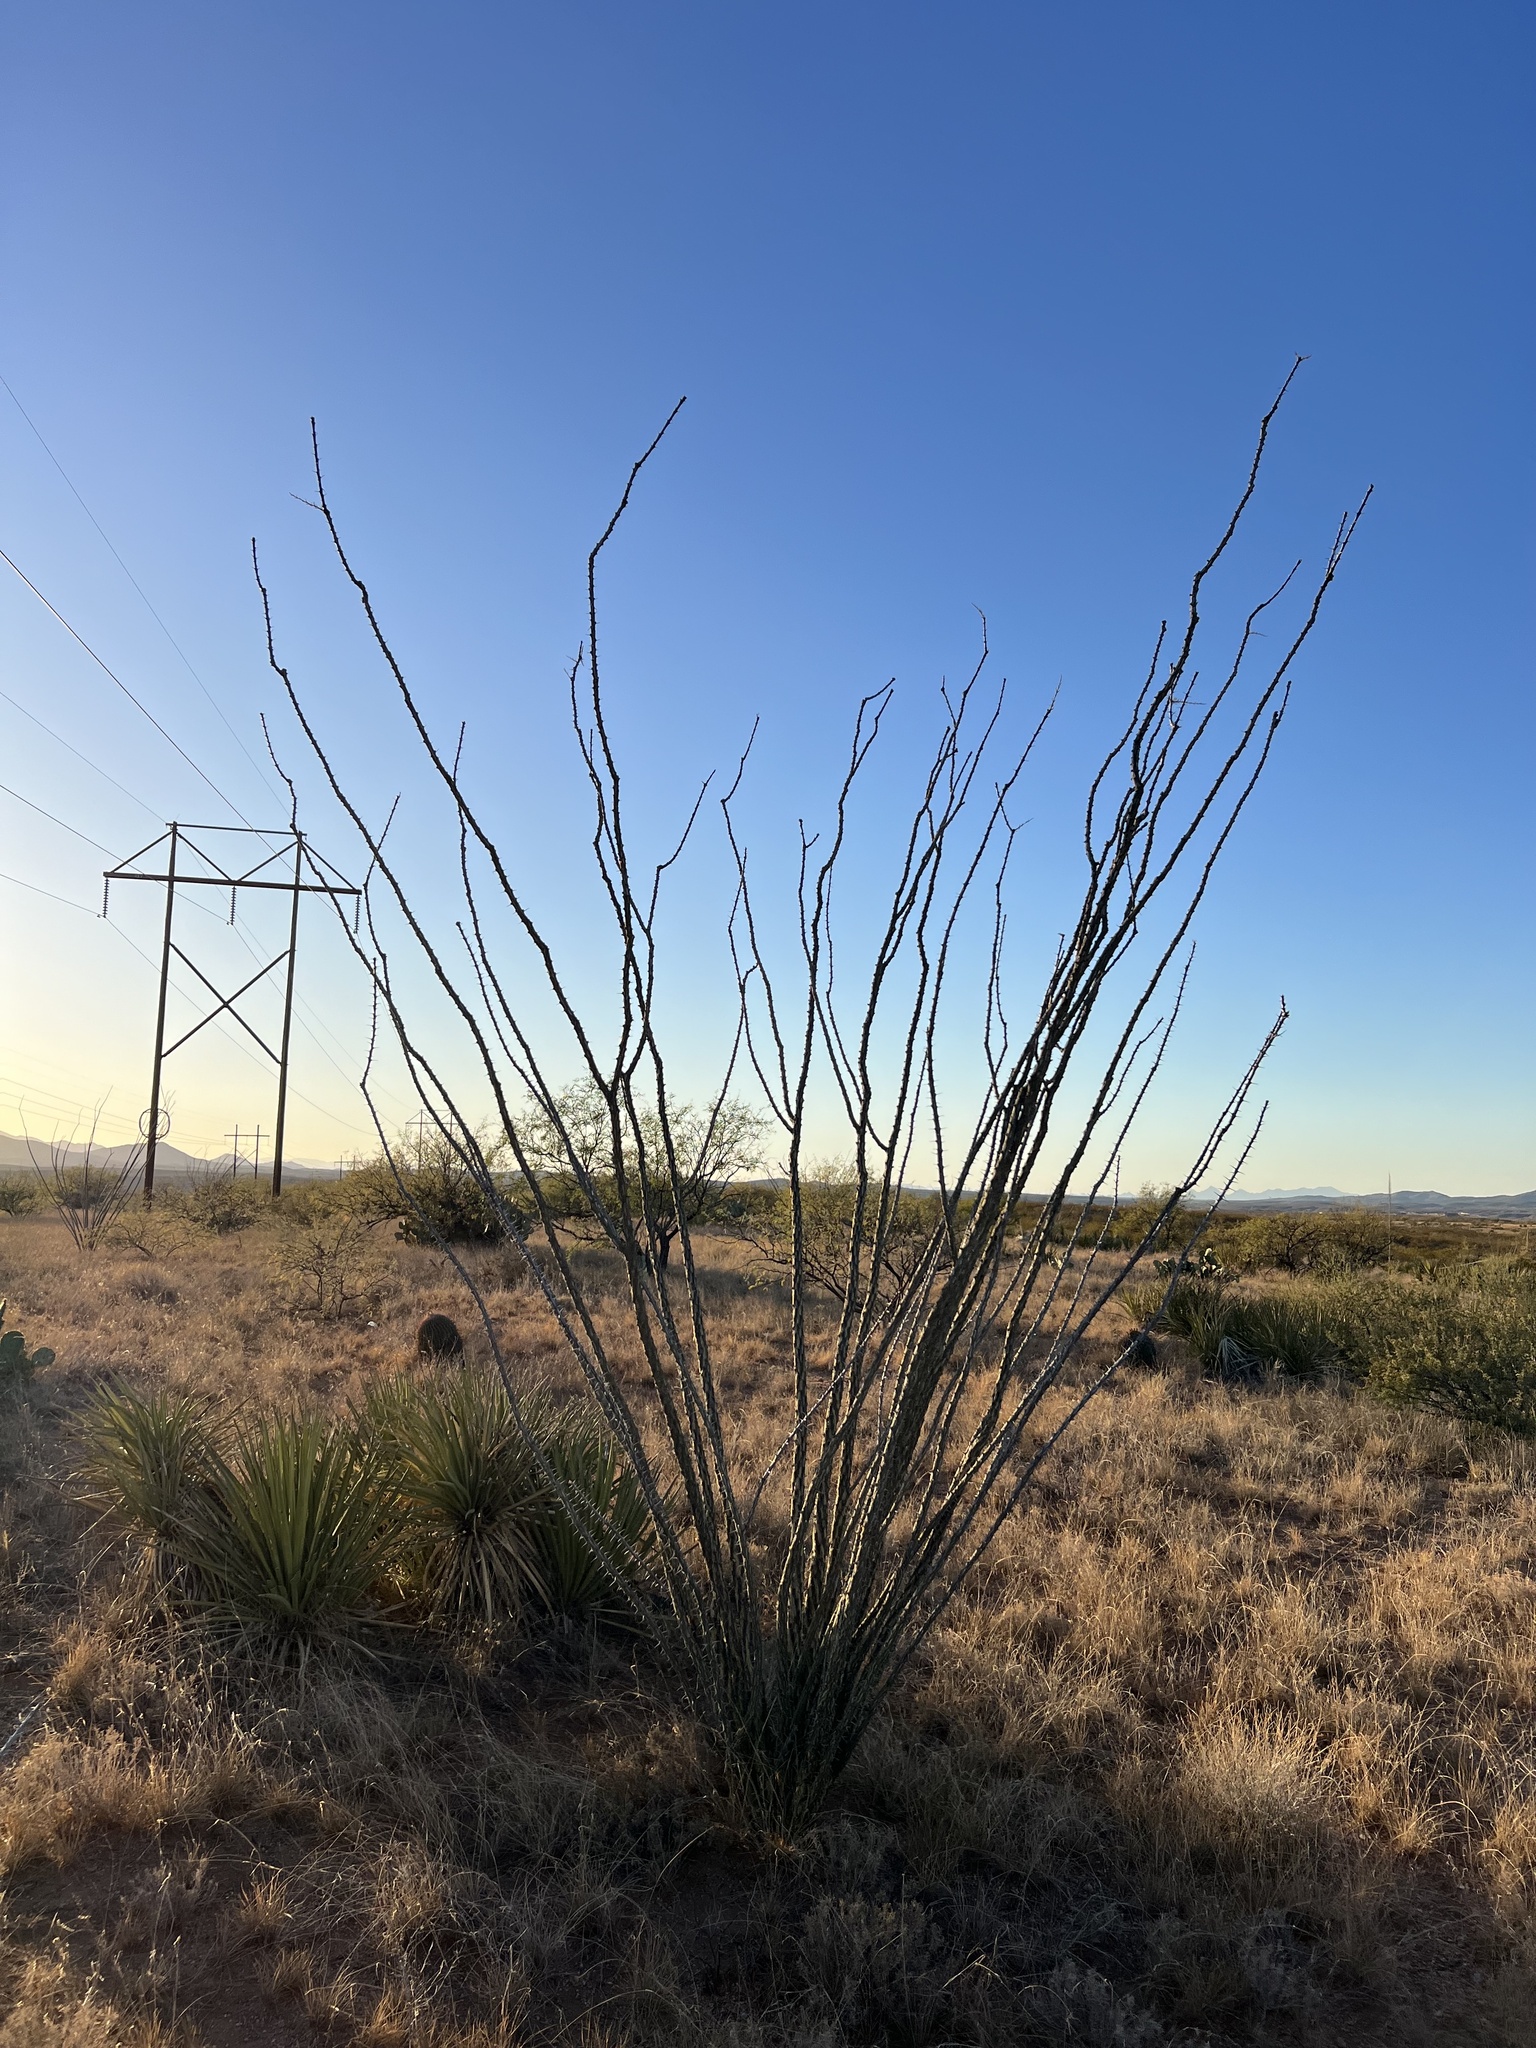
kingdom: Plantae
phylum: Tracheophyta
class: Magnoliopsida
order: Ericales
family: Fouquieriaceae
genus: Fouquieria
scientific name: Fouquieria splendens
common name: Vine-cactus
